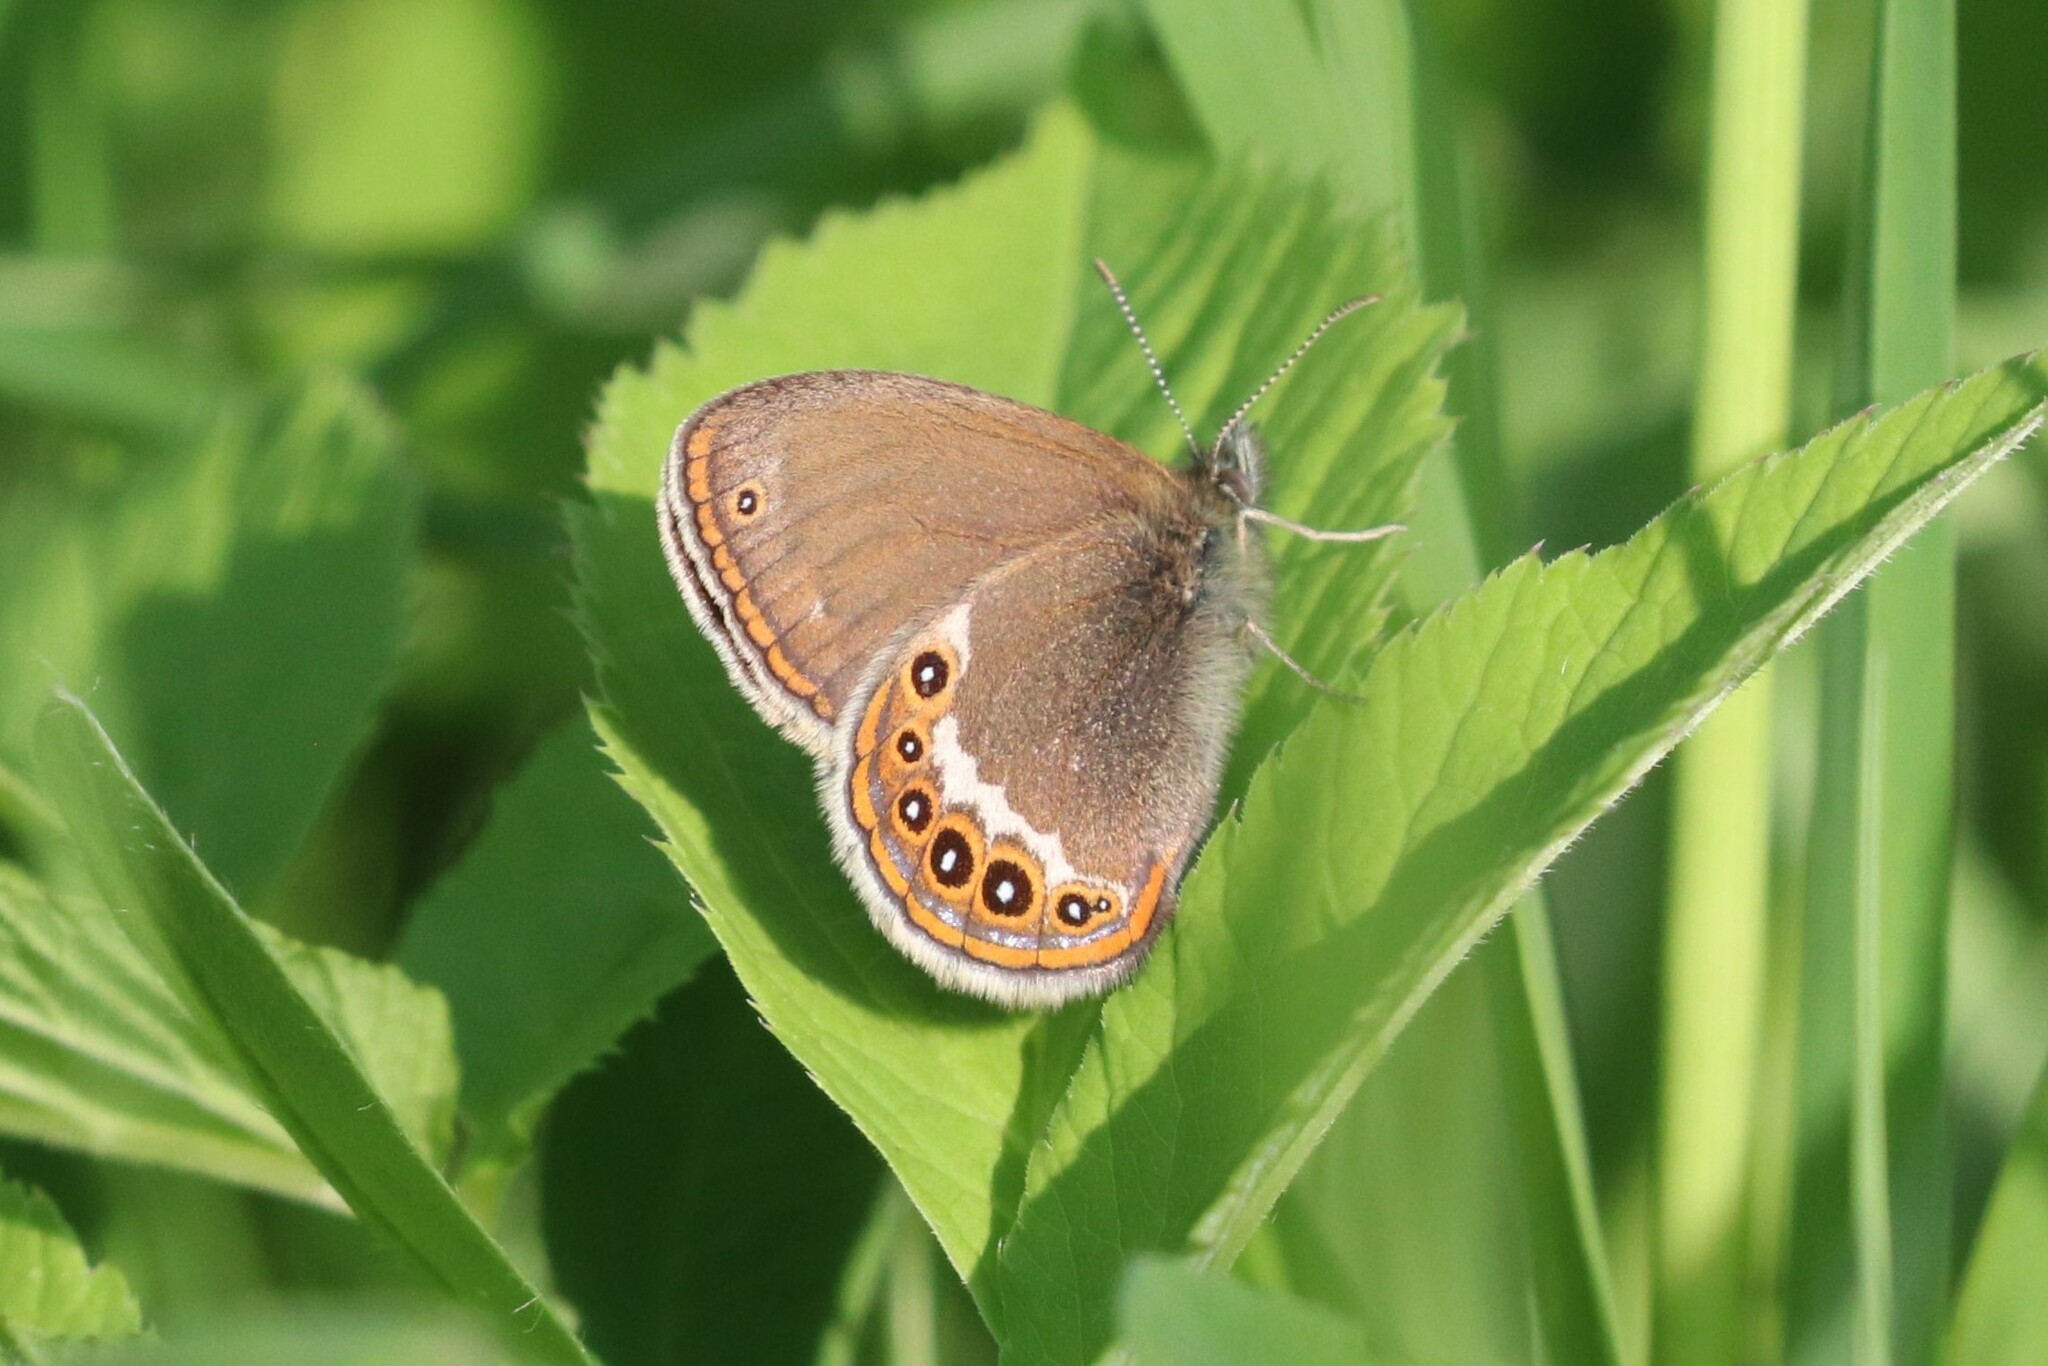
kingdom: Animalia
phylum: Arthropoda
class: Insecta
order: Lepidoptera
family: Nymphalidae
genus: Coenonympha
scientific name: Coenonympha hero
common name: Scarce heath
